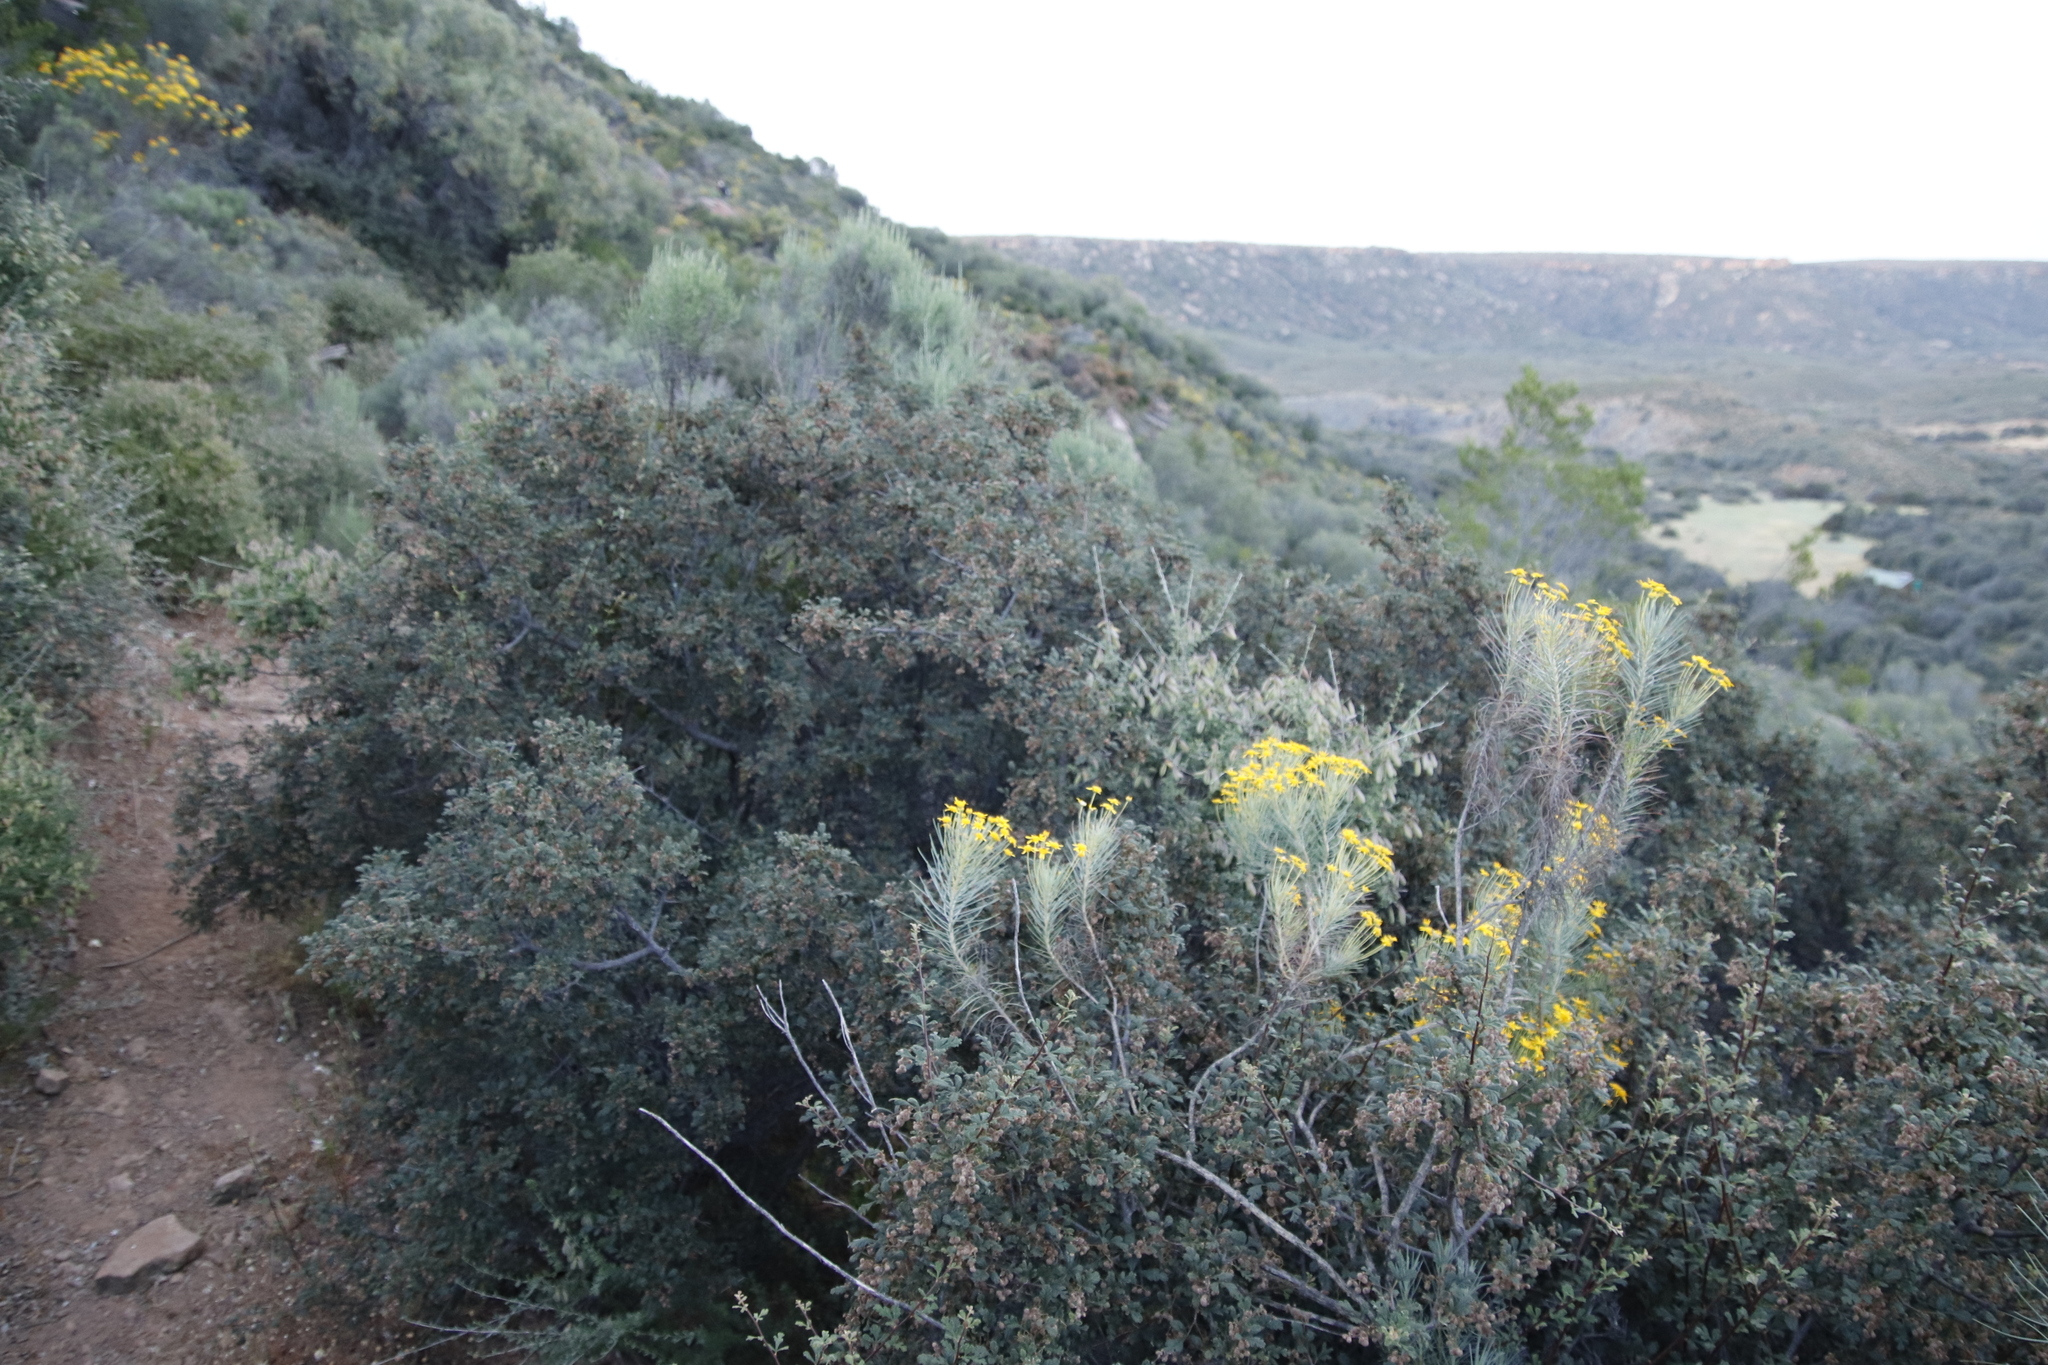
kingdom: Plantae
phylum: Tracheophyta
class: Magnoliopsida
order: Sapindales
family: Anacardiaceae
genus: Searsia
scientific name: Searsia incisa
